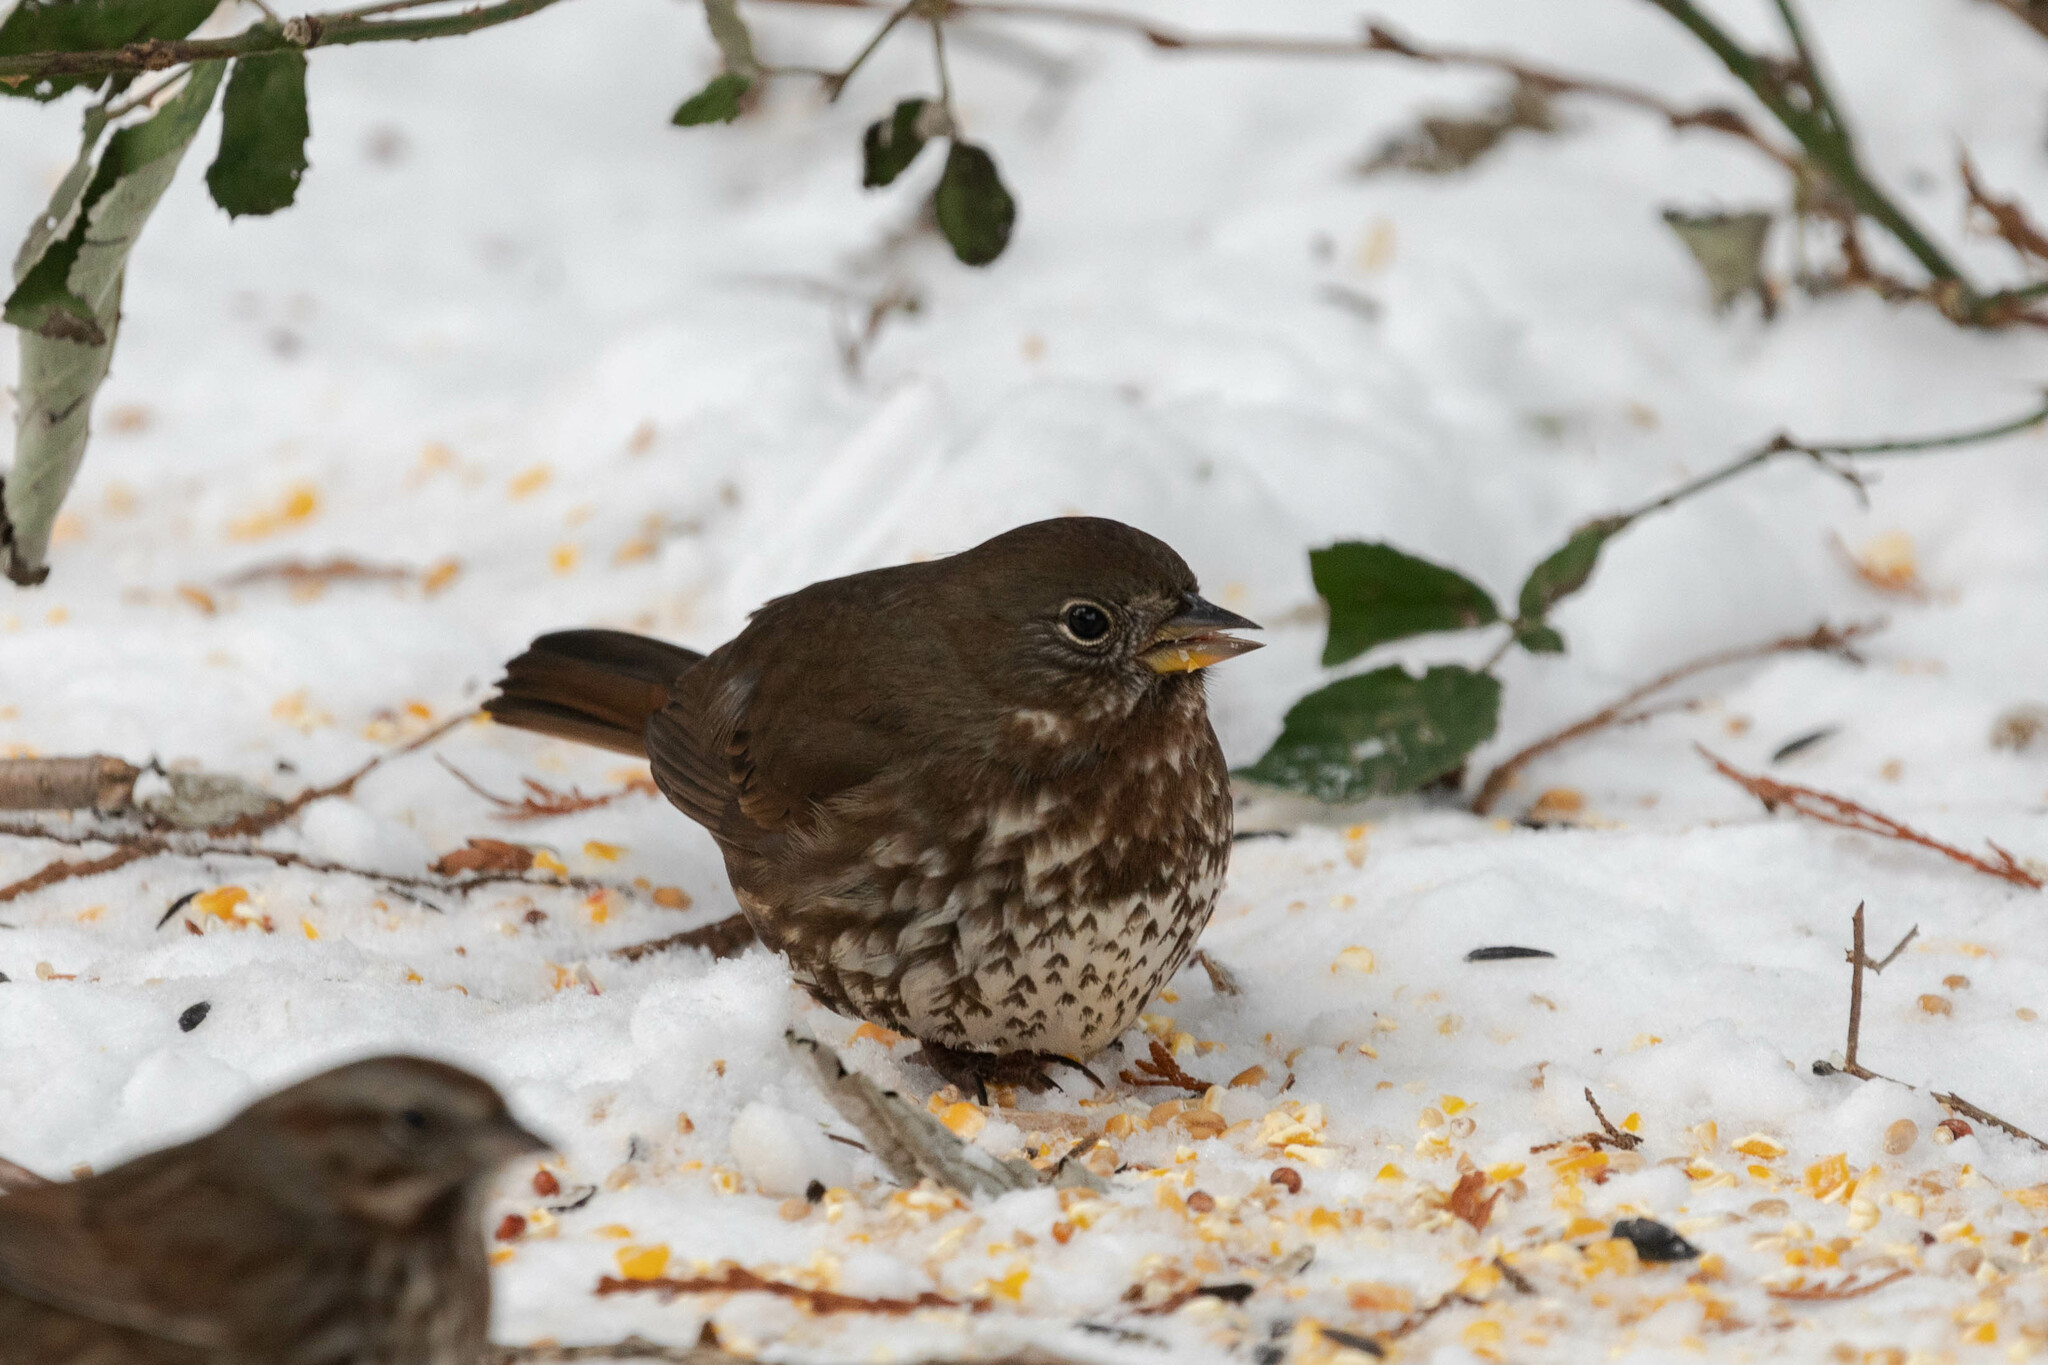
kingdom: Animalia
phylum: Chordata
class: Aves
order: Passeriformes
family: Passerellidae
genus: Passerella
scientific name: Passerella iliaca
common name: Fox sparrow
